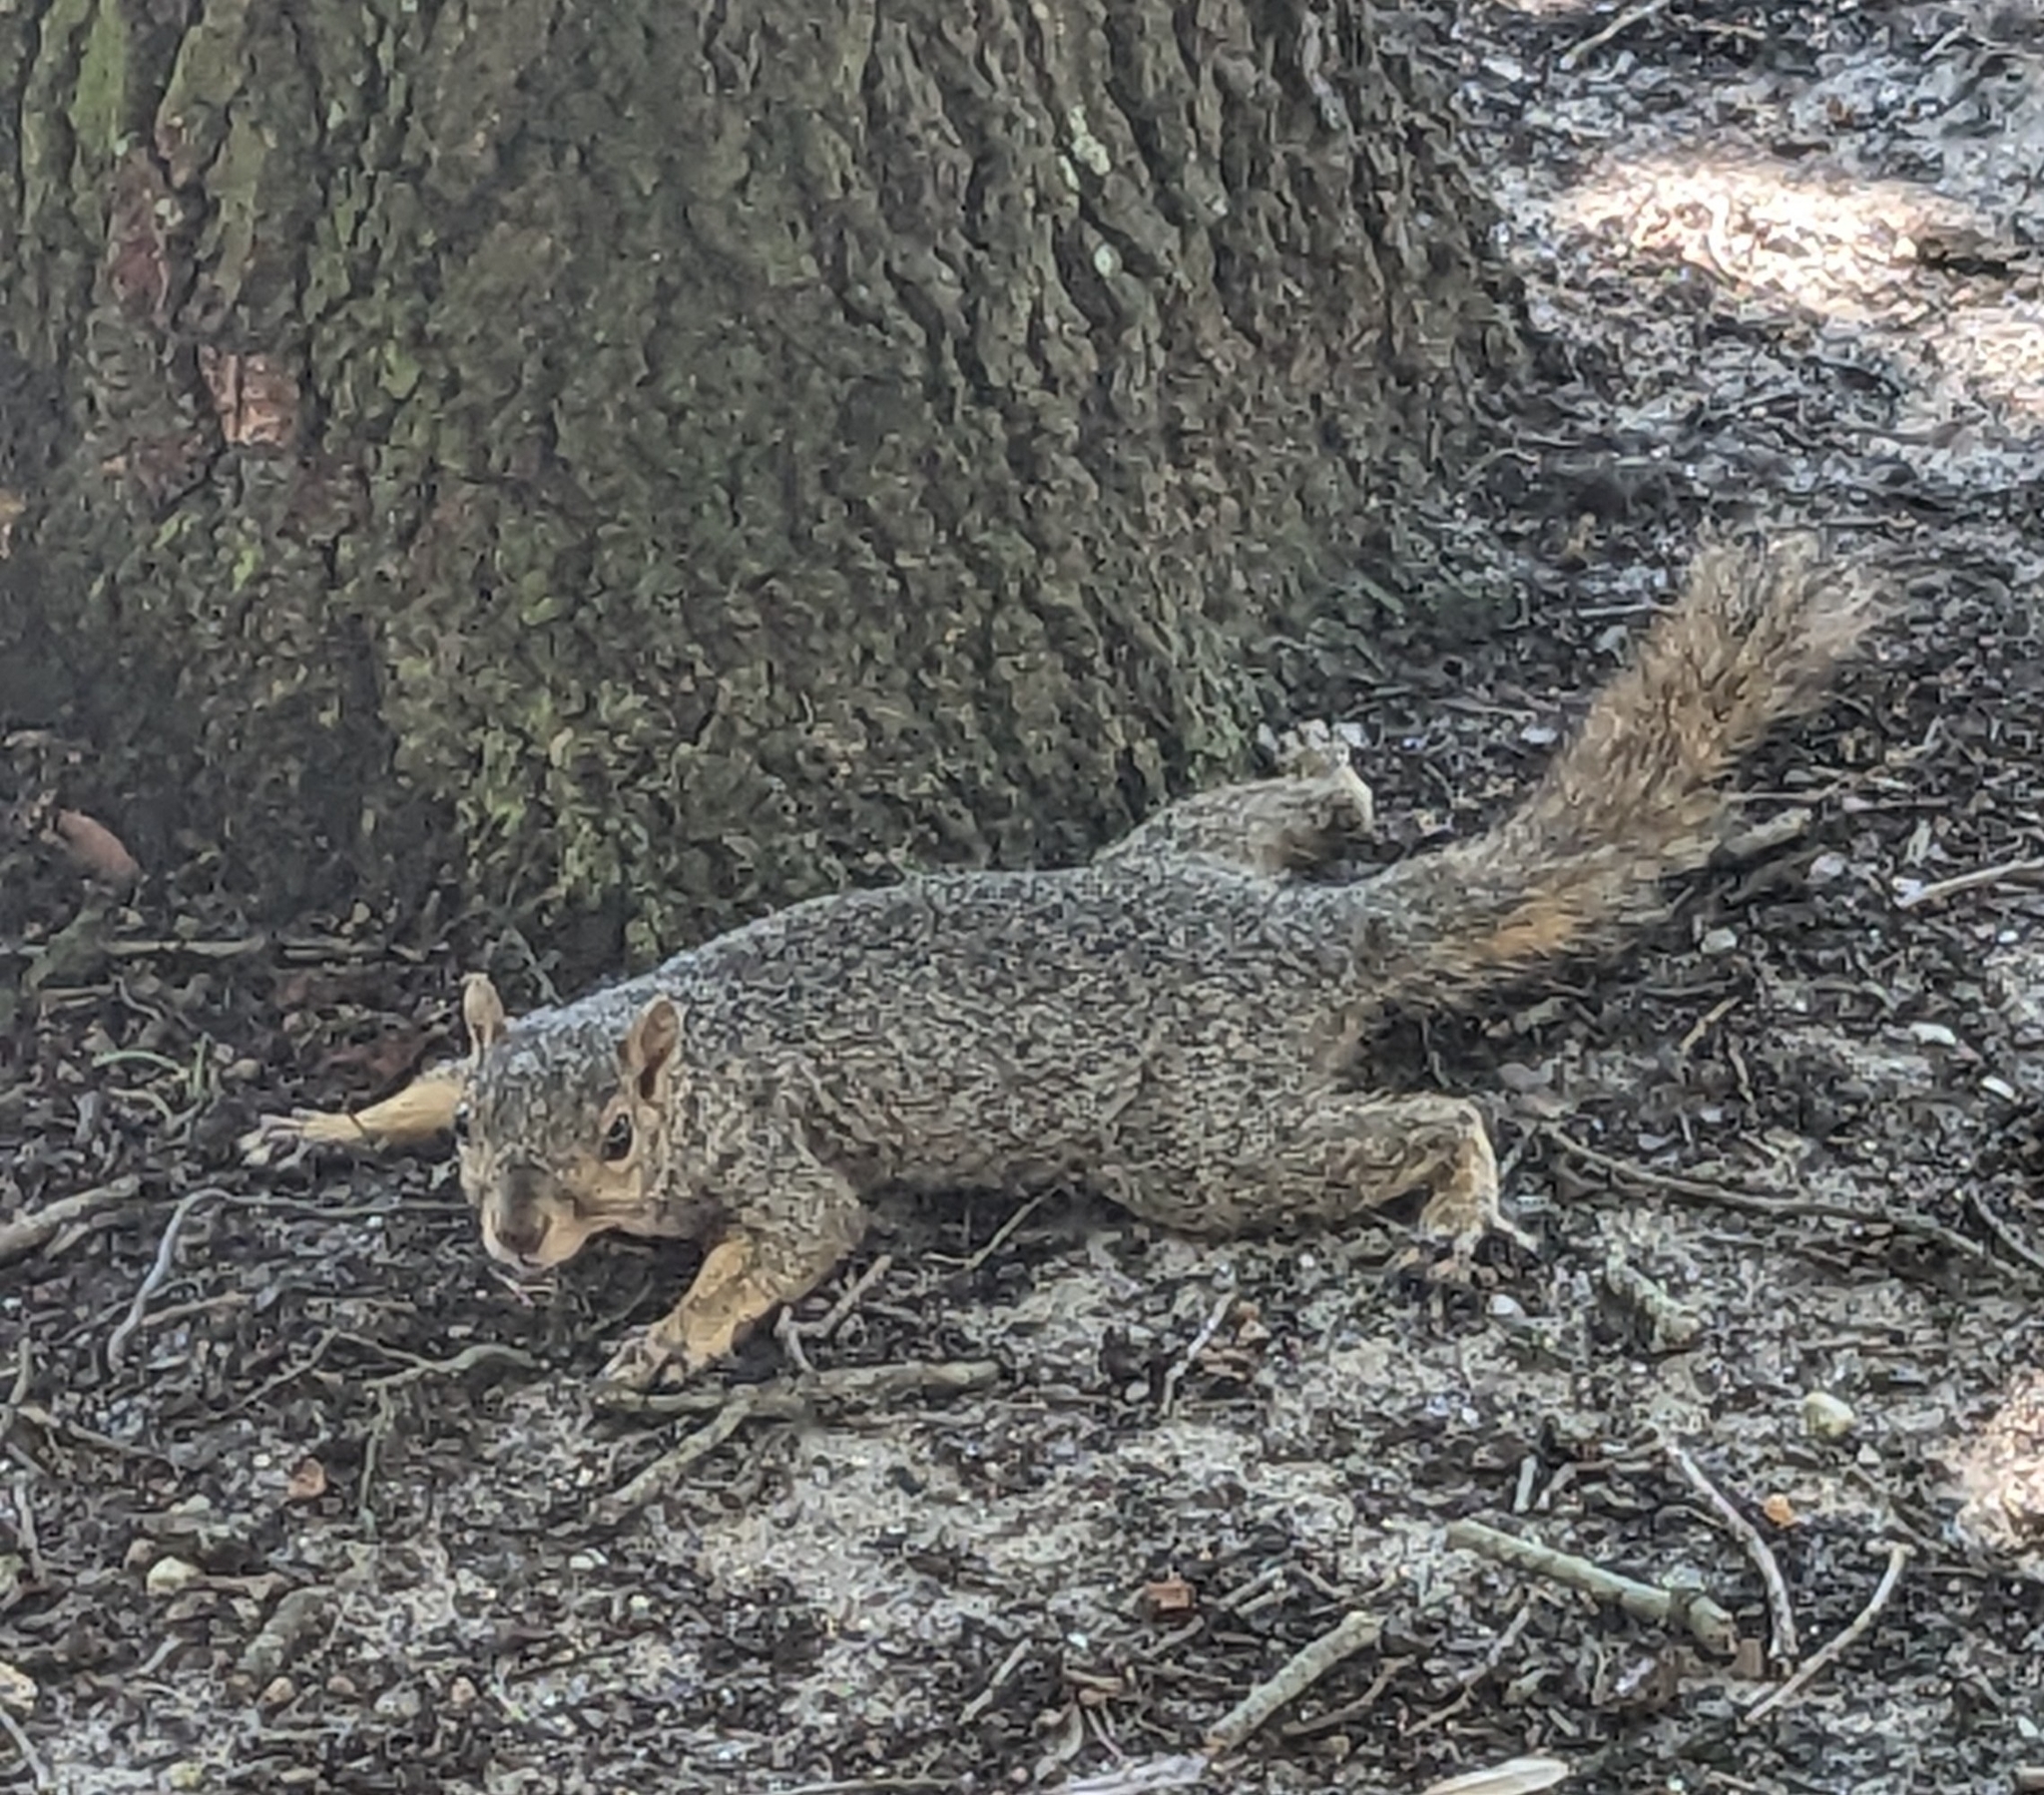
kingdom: Animalia
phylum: Chordata
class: Mammalia
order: Rodentia
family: Sciuridae
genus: Sciurus
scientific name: Sciurus niger
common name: Fox squirrel
